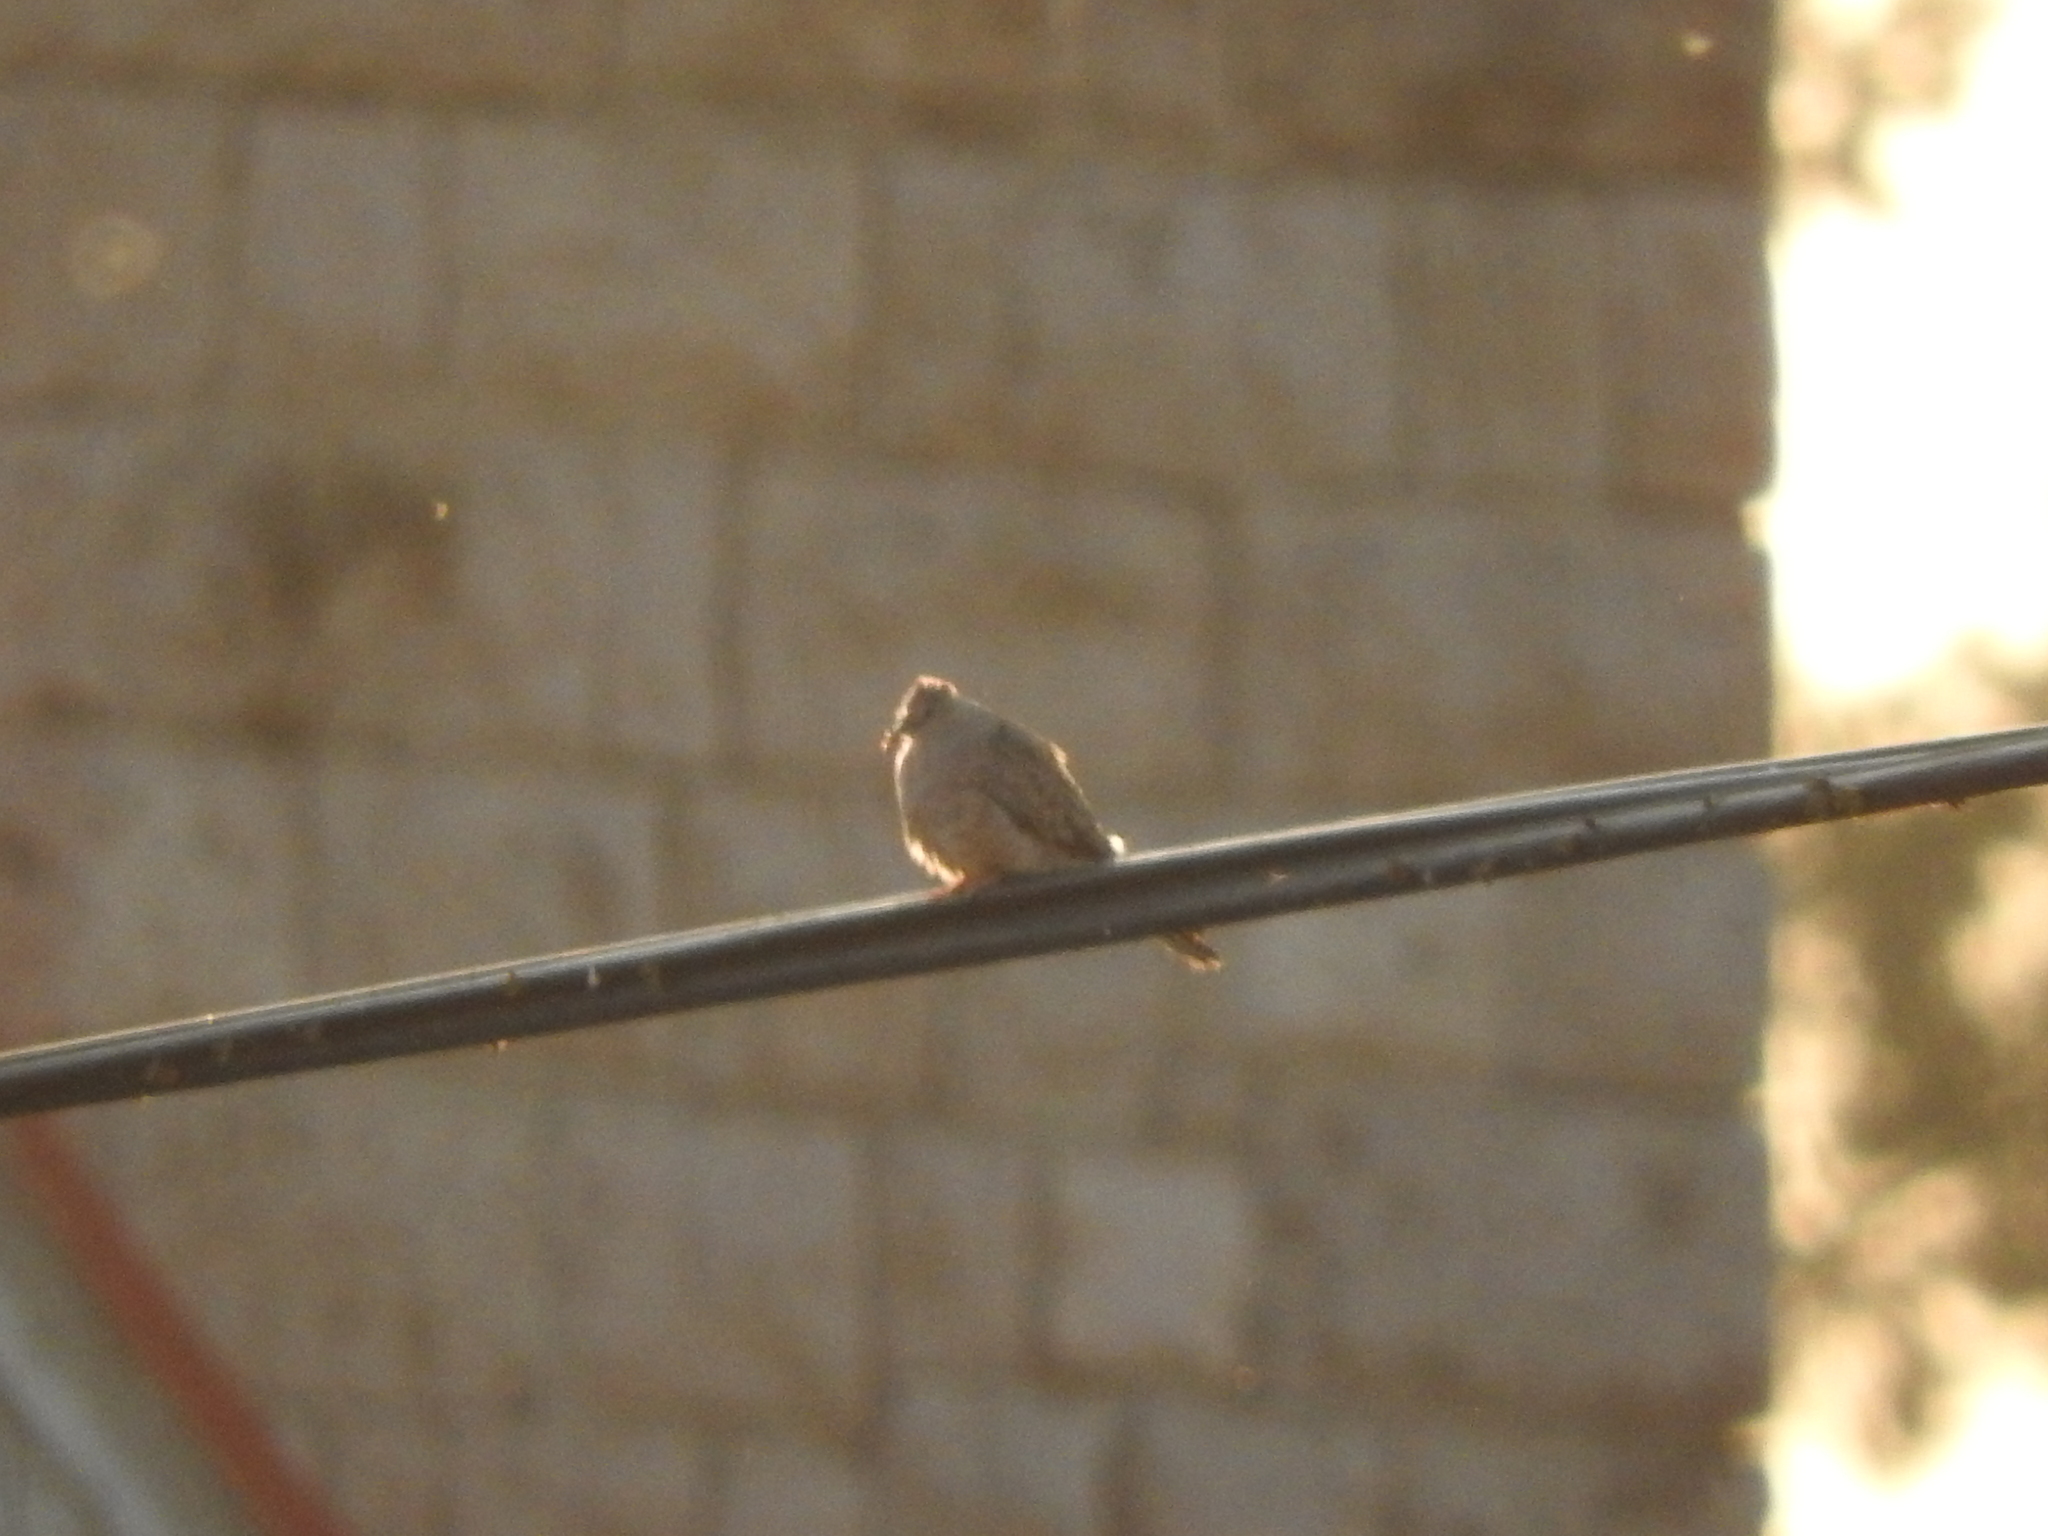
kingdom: Animalia
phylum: Chordata
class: Aves
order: Columbiformes
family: Columbidae
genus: Columbina
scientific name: Columbina inca
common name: Inca dove
